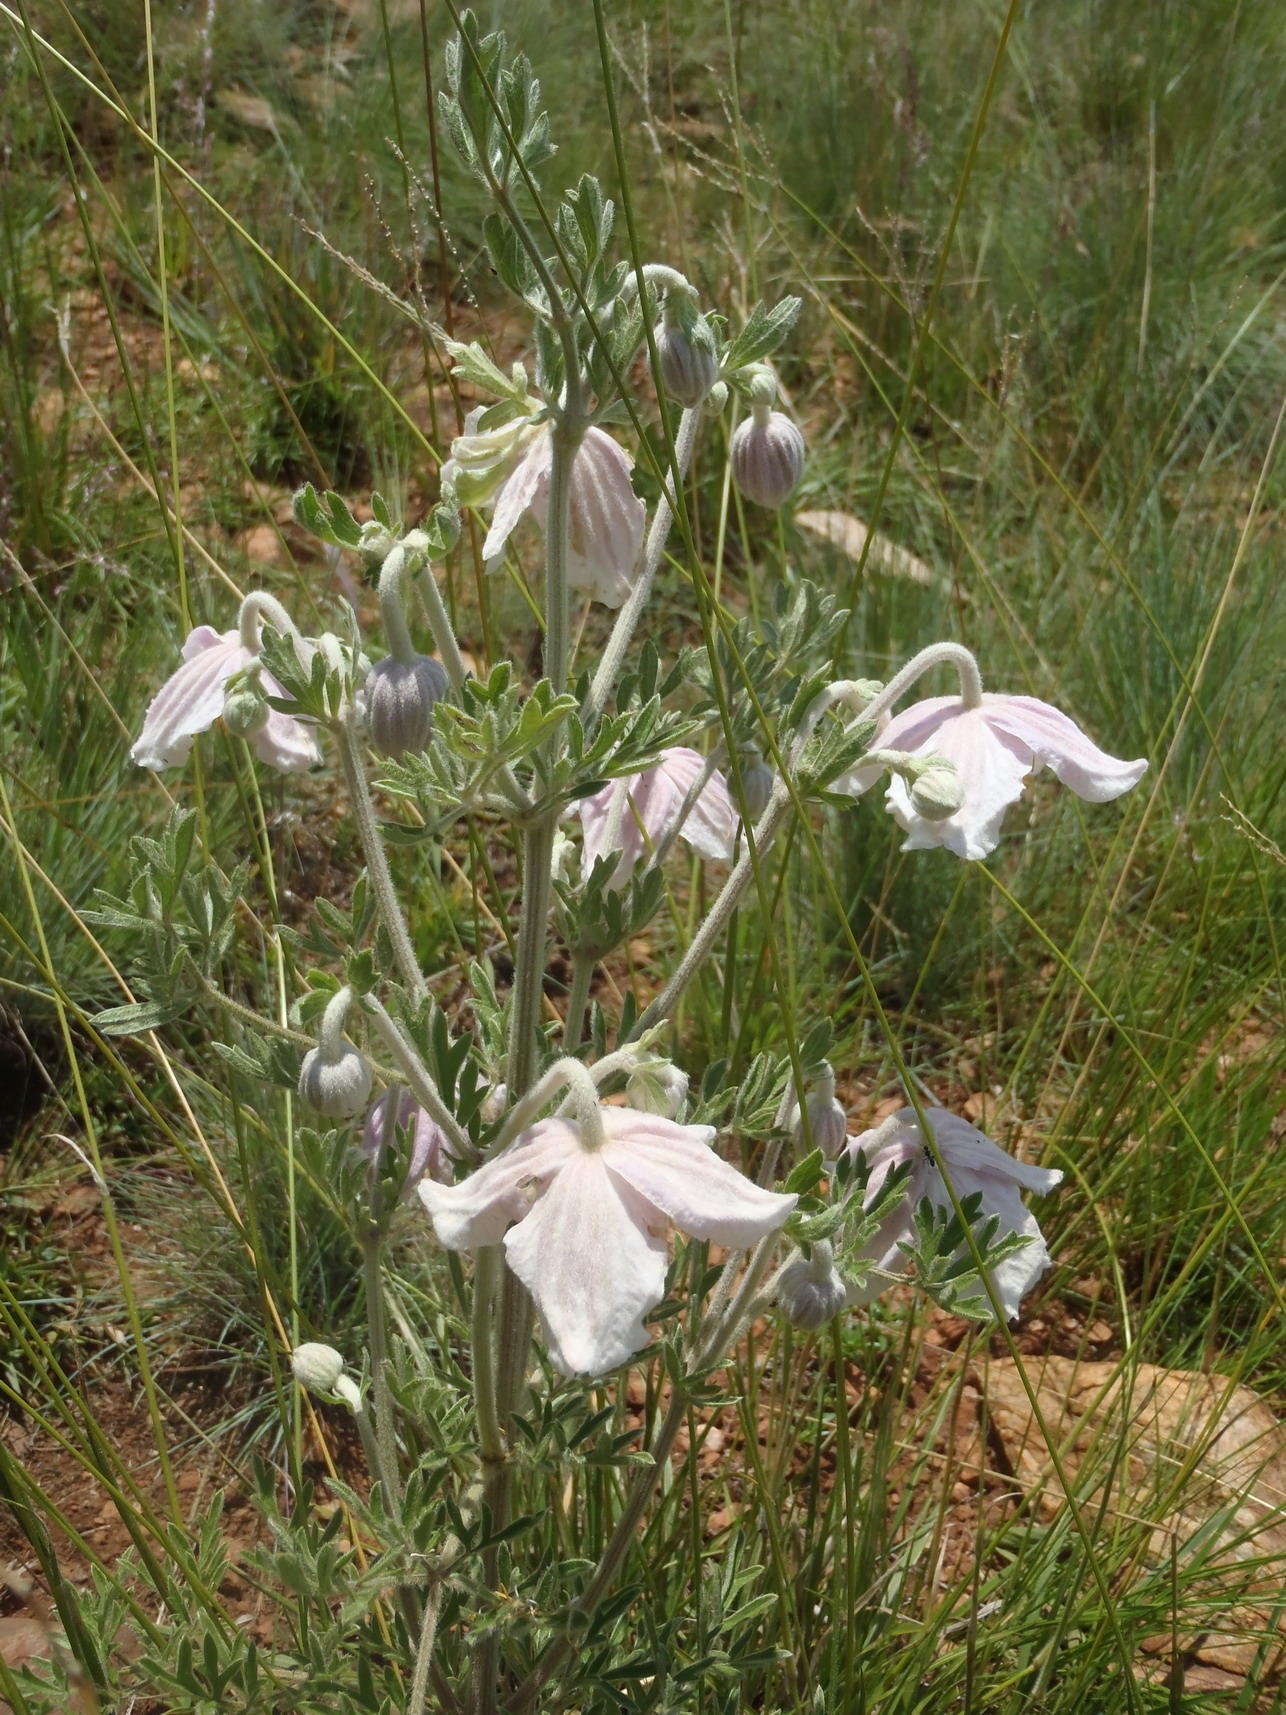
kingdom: Plantae
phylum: Tracheophyta
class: Magnoliopsida
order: Ranunculales
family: Ranunculaceae
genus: Clematis
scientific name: Clematis villosa
